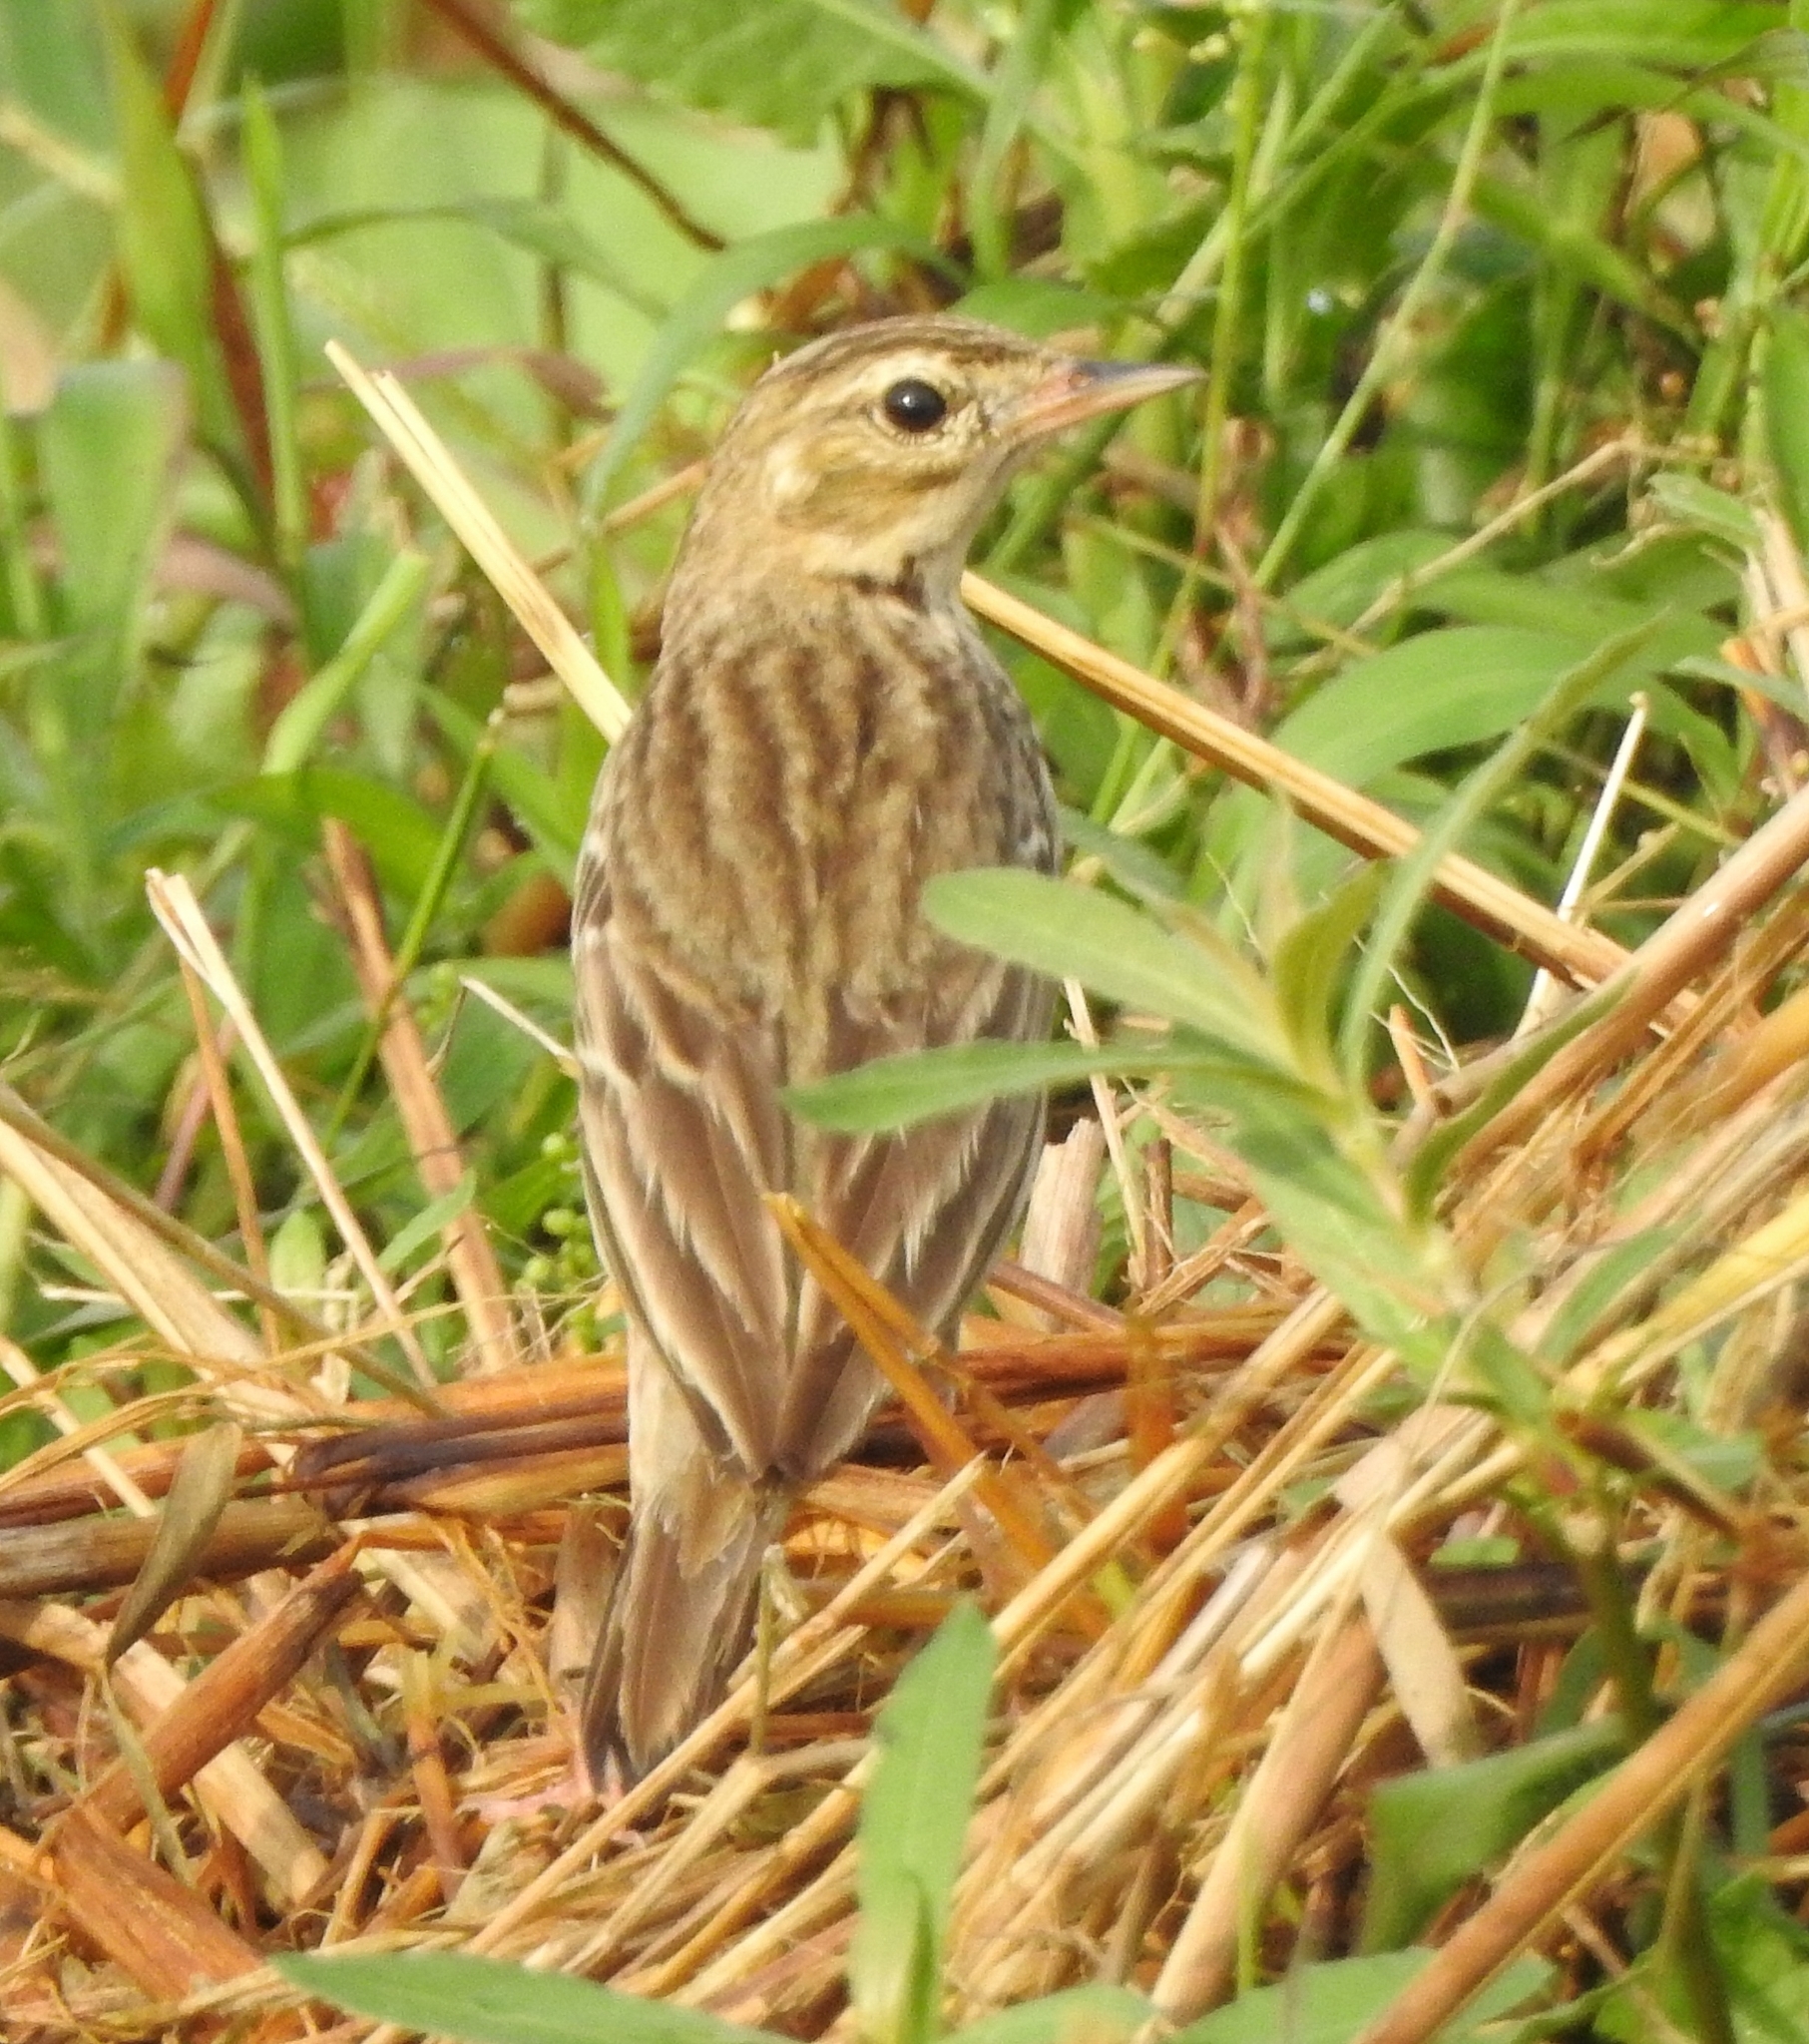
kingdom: Animalia
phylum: Chordata
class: Aves
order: Passeriformes
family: Motacillidae
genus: Anthus
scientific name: Anthus trivialis
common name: Tree pipit
